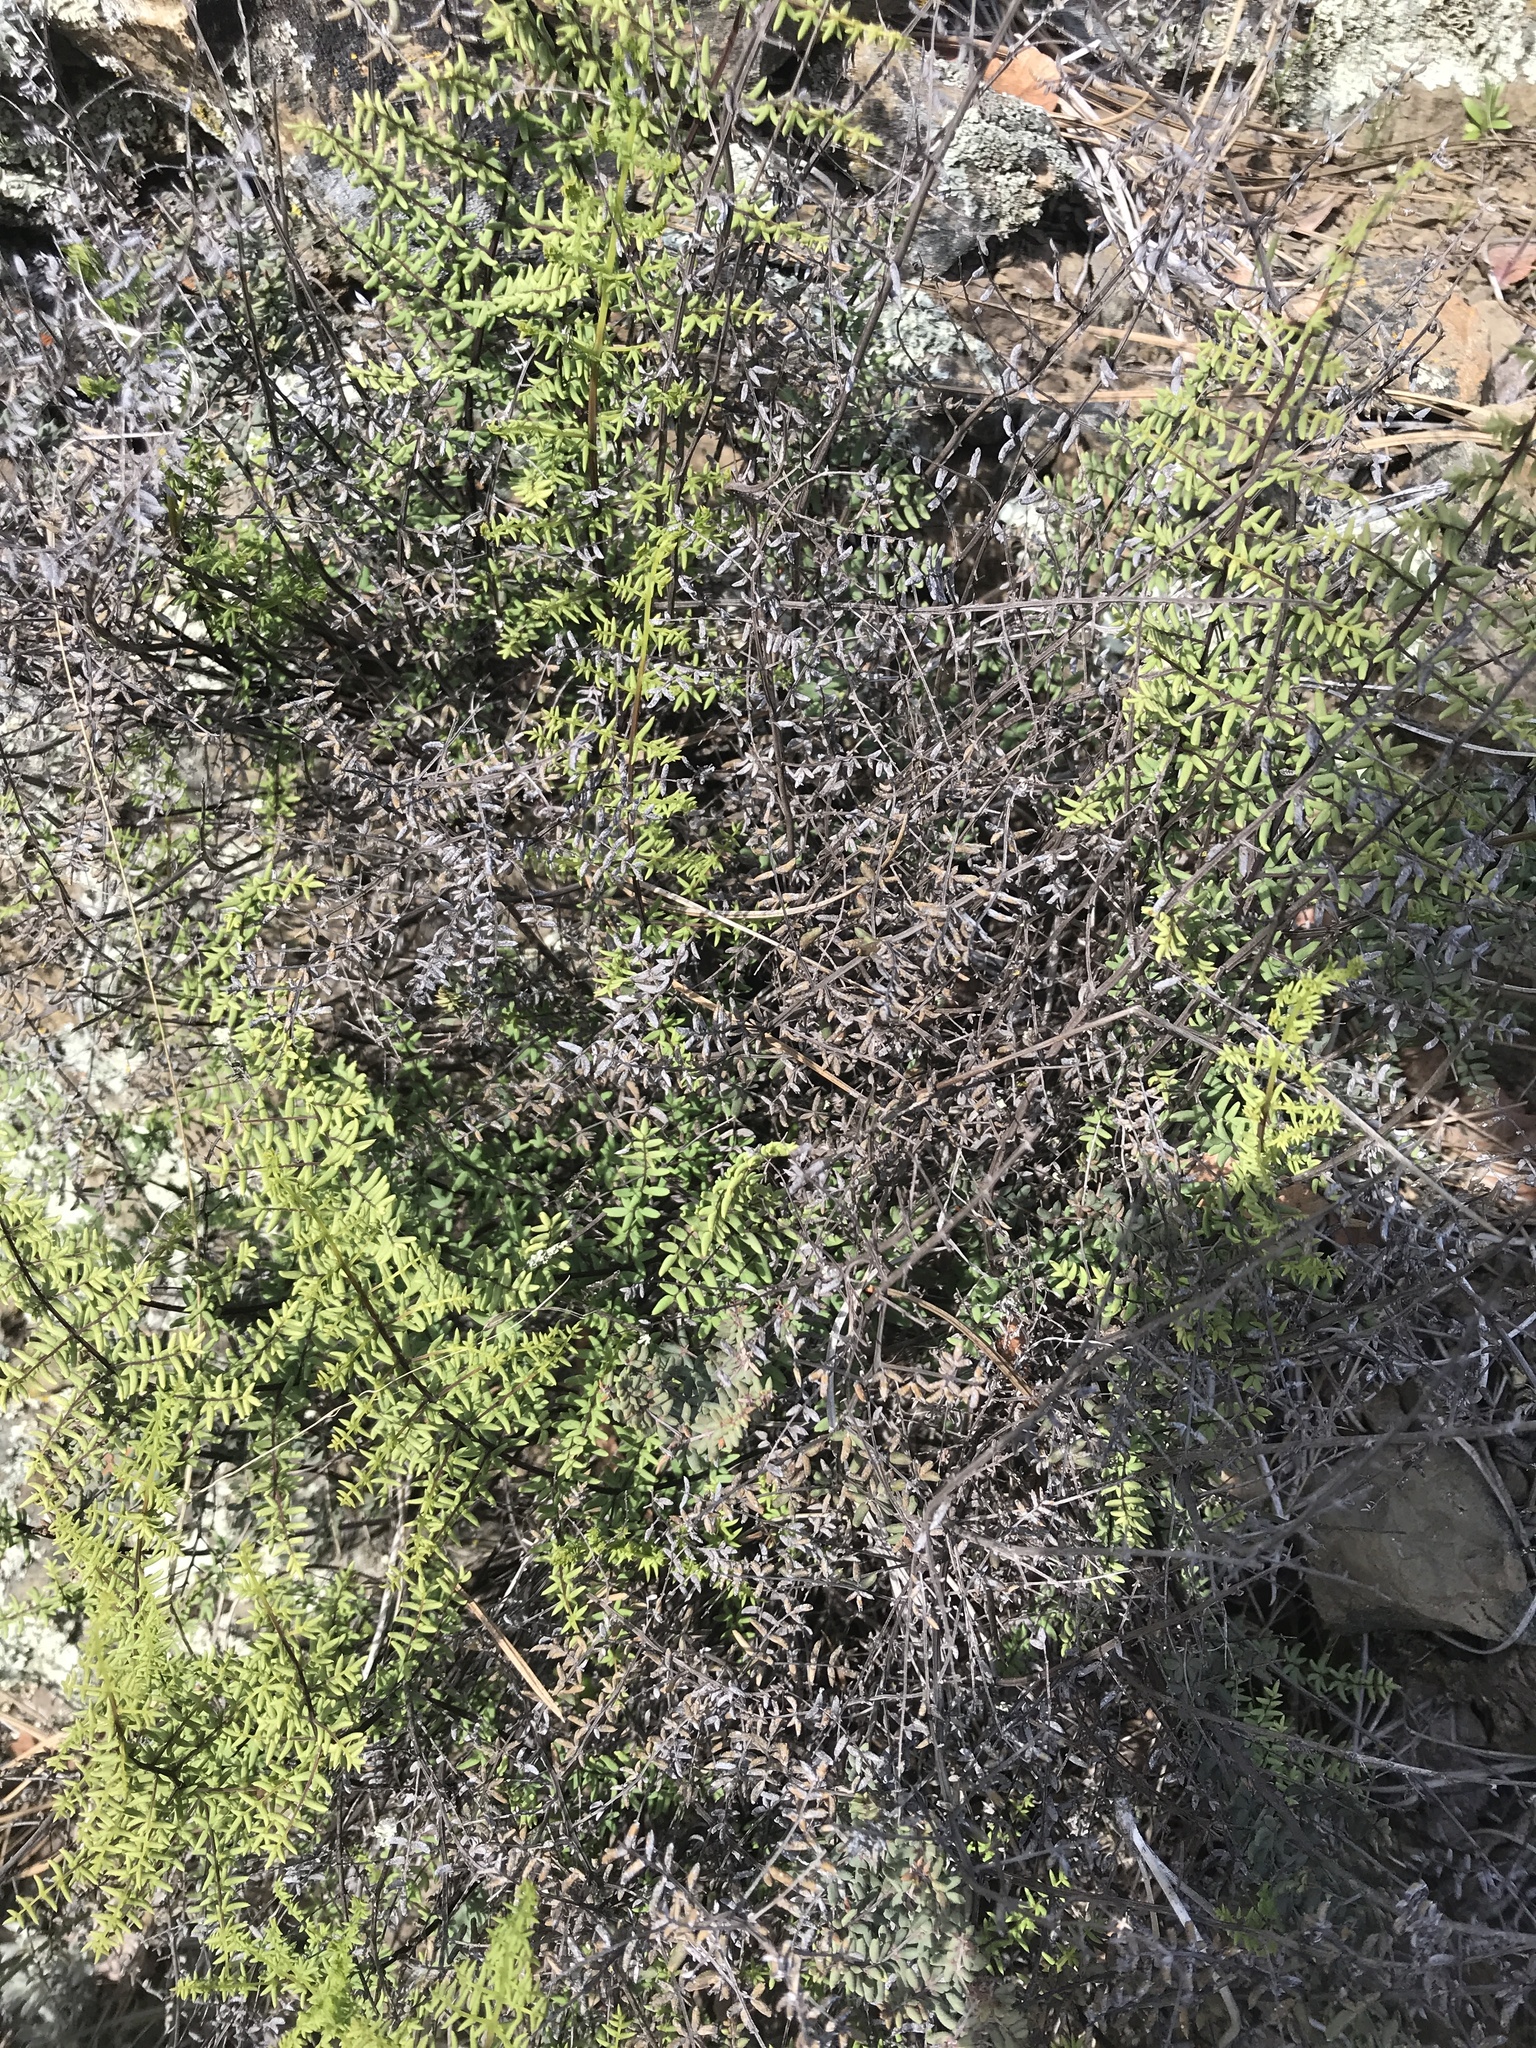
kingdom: Plantae
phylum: Tracheophyta
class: Polypodiopsida
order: Polypodiales
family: Pteridaceae
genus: Pellaea
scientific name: Pellaea mucronata
